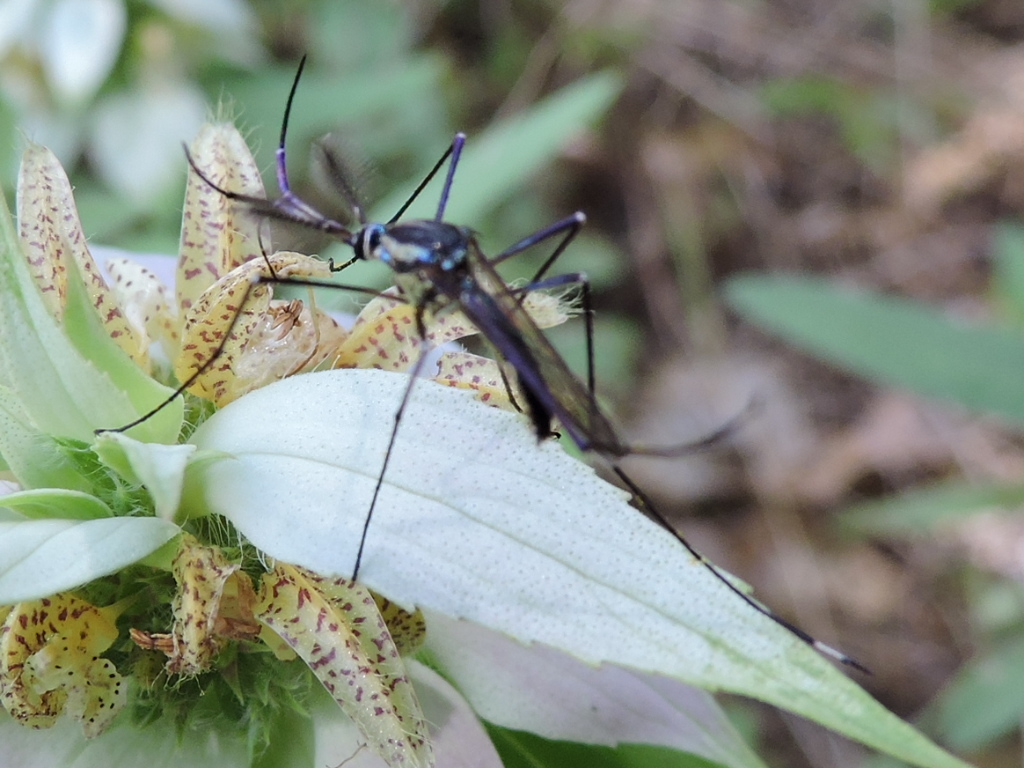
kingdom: Animalia
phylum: Arthropoda
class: Insecta
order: Diptera
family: Culicidae
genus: Toxorhynchites
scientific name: Toxorhynchites rutilus
